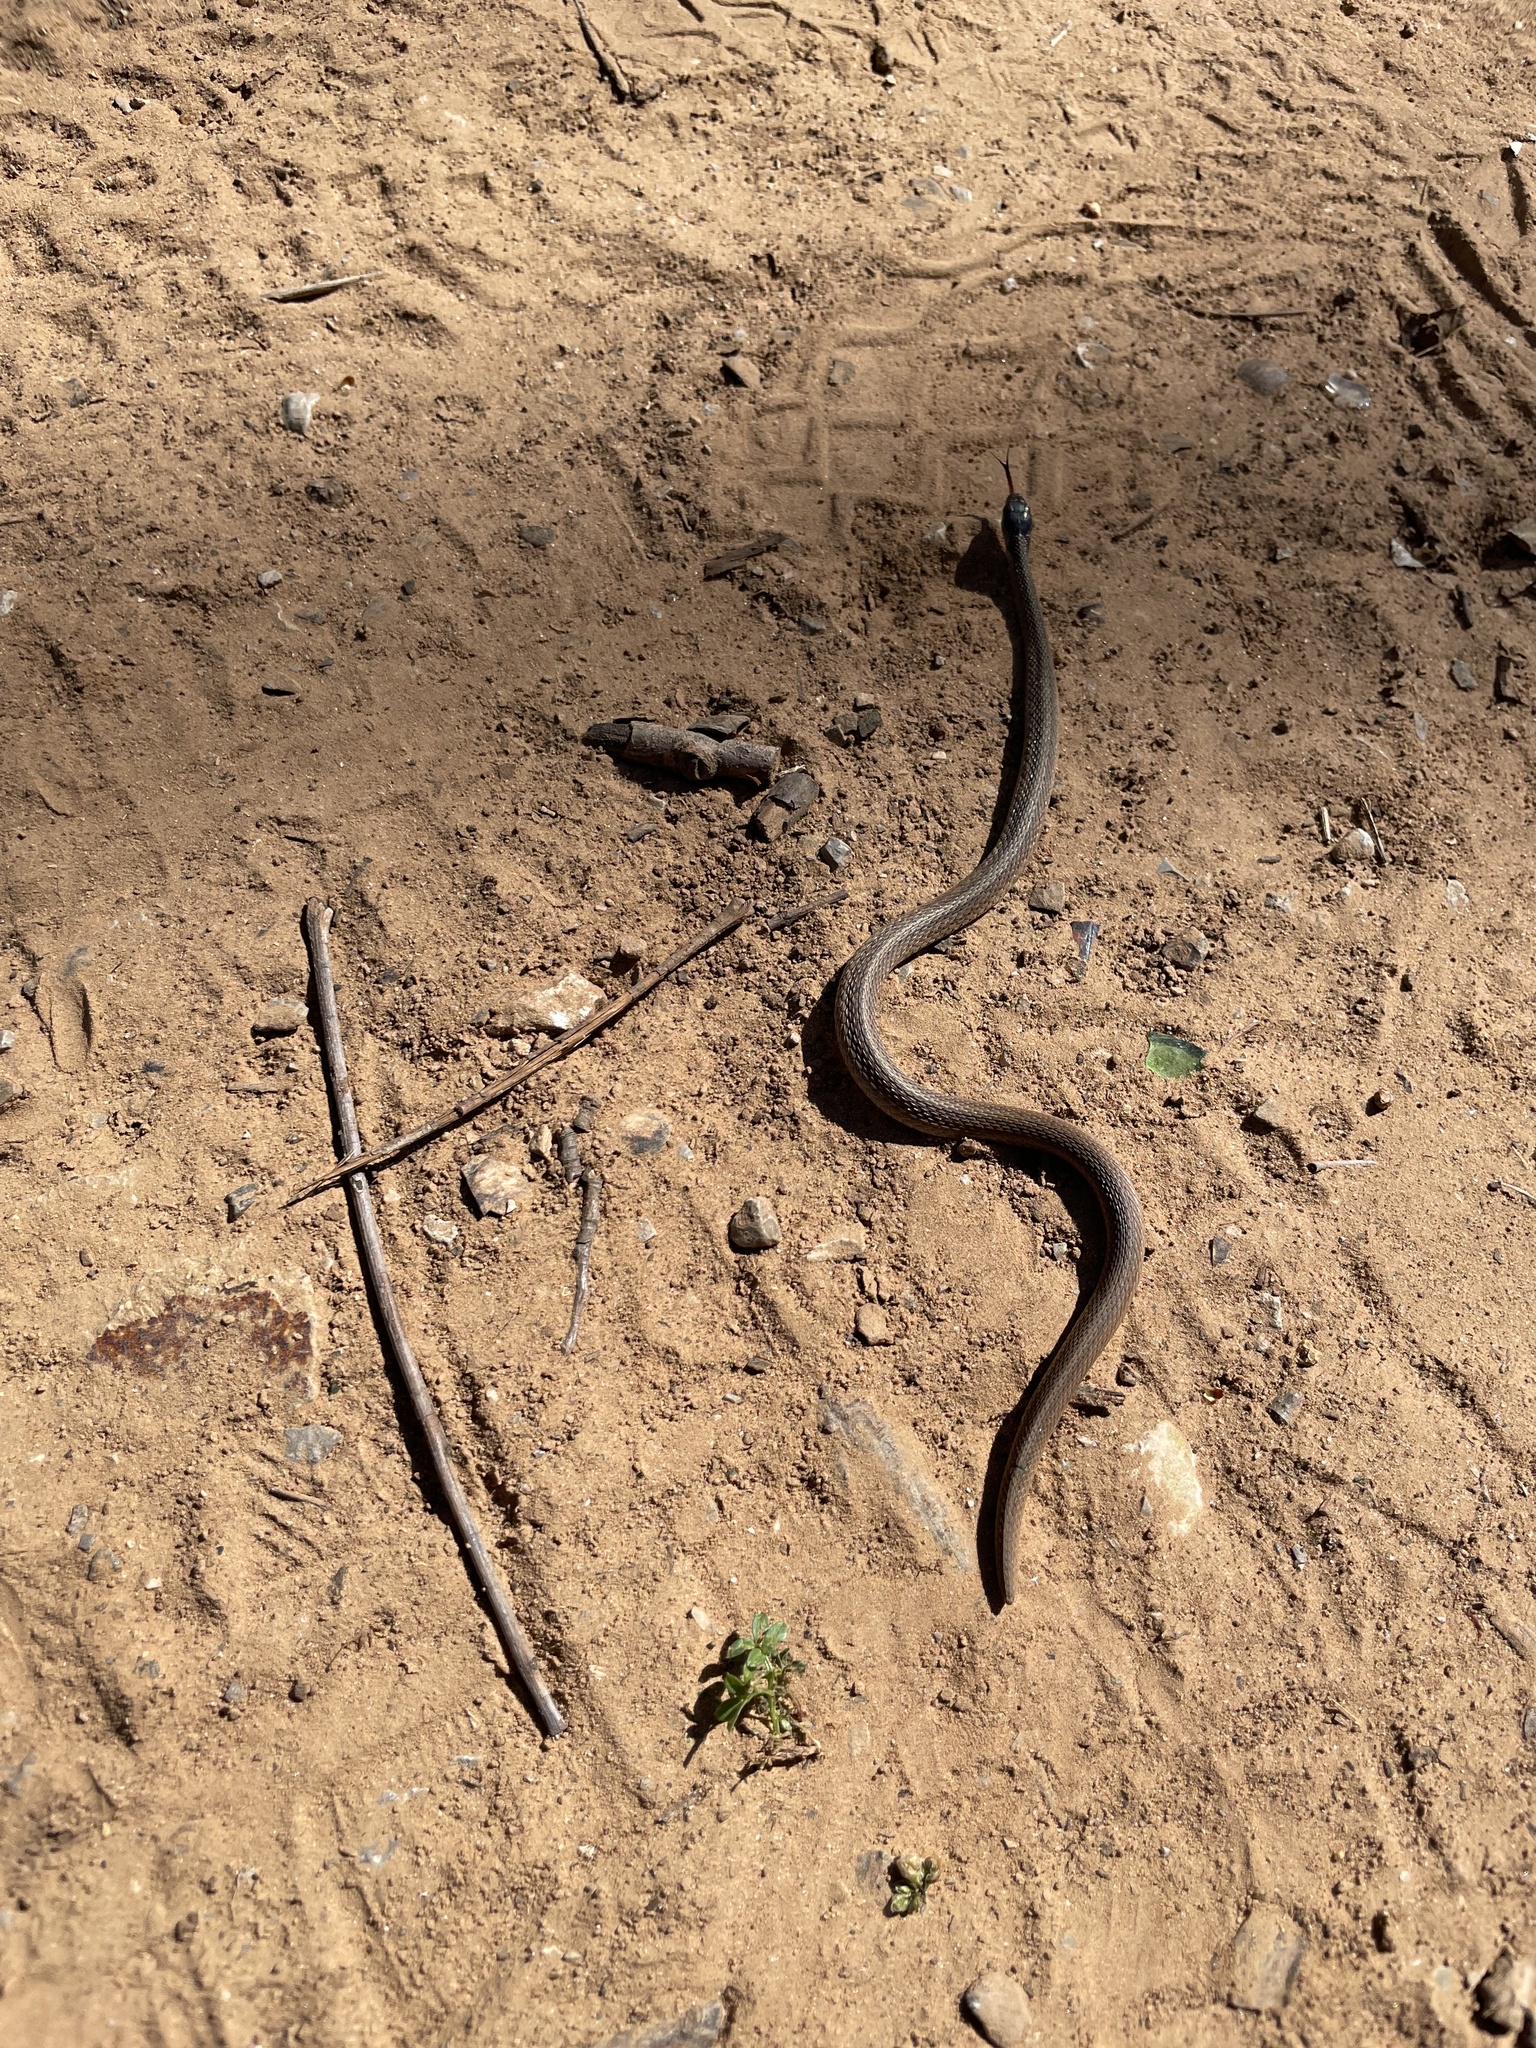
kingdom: Animalia
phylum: Chordata
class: Squamata
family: Colubridae
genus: Storeria
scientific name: Storeria dekayi
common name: (dekay’s) brown snake
